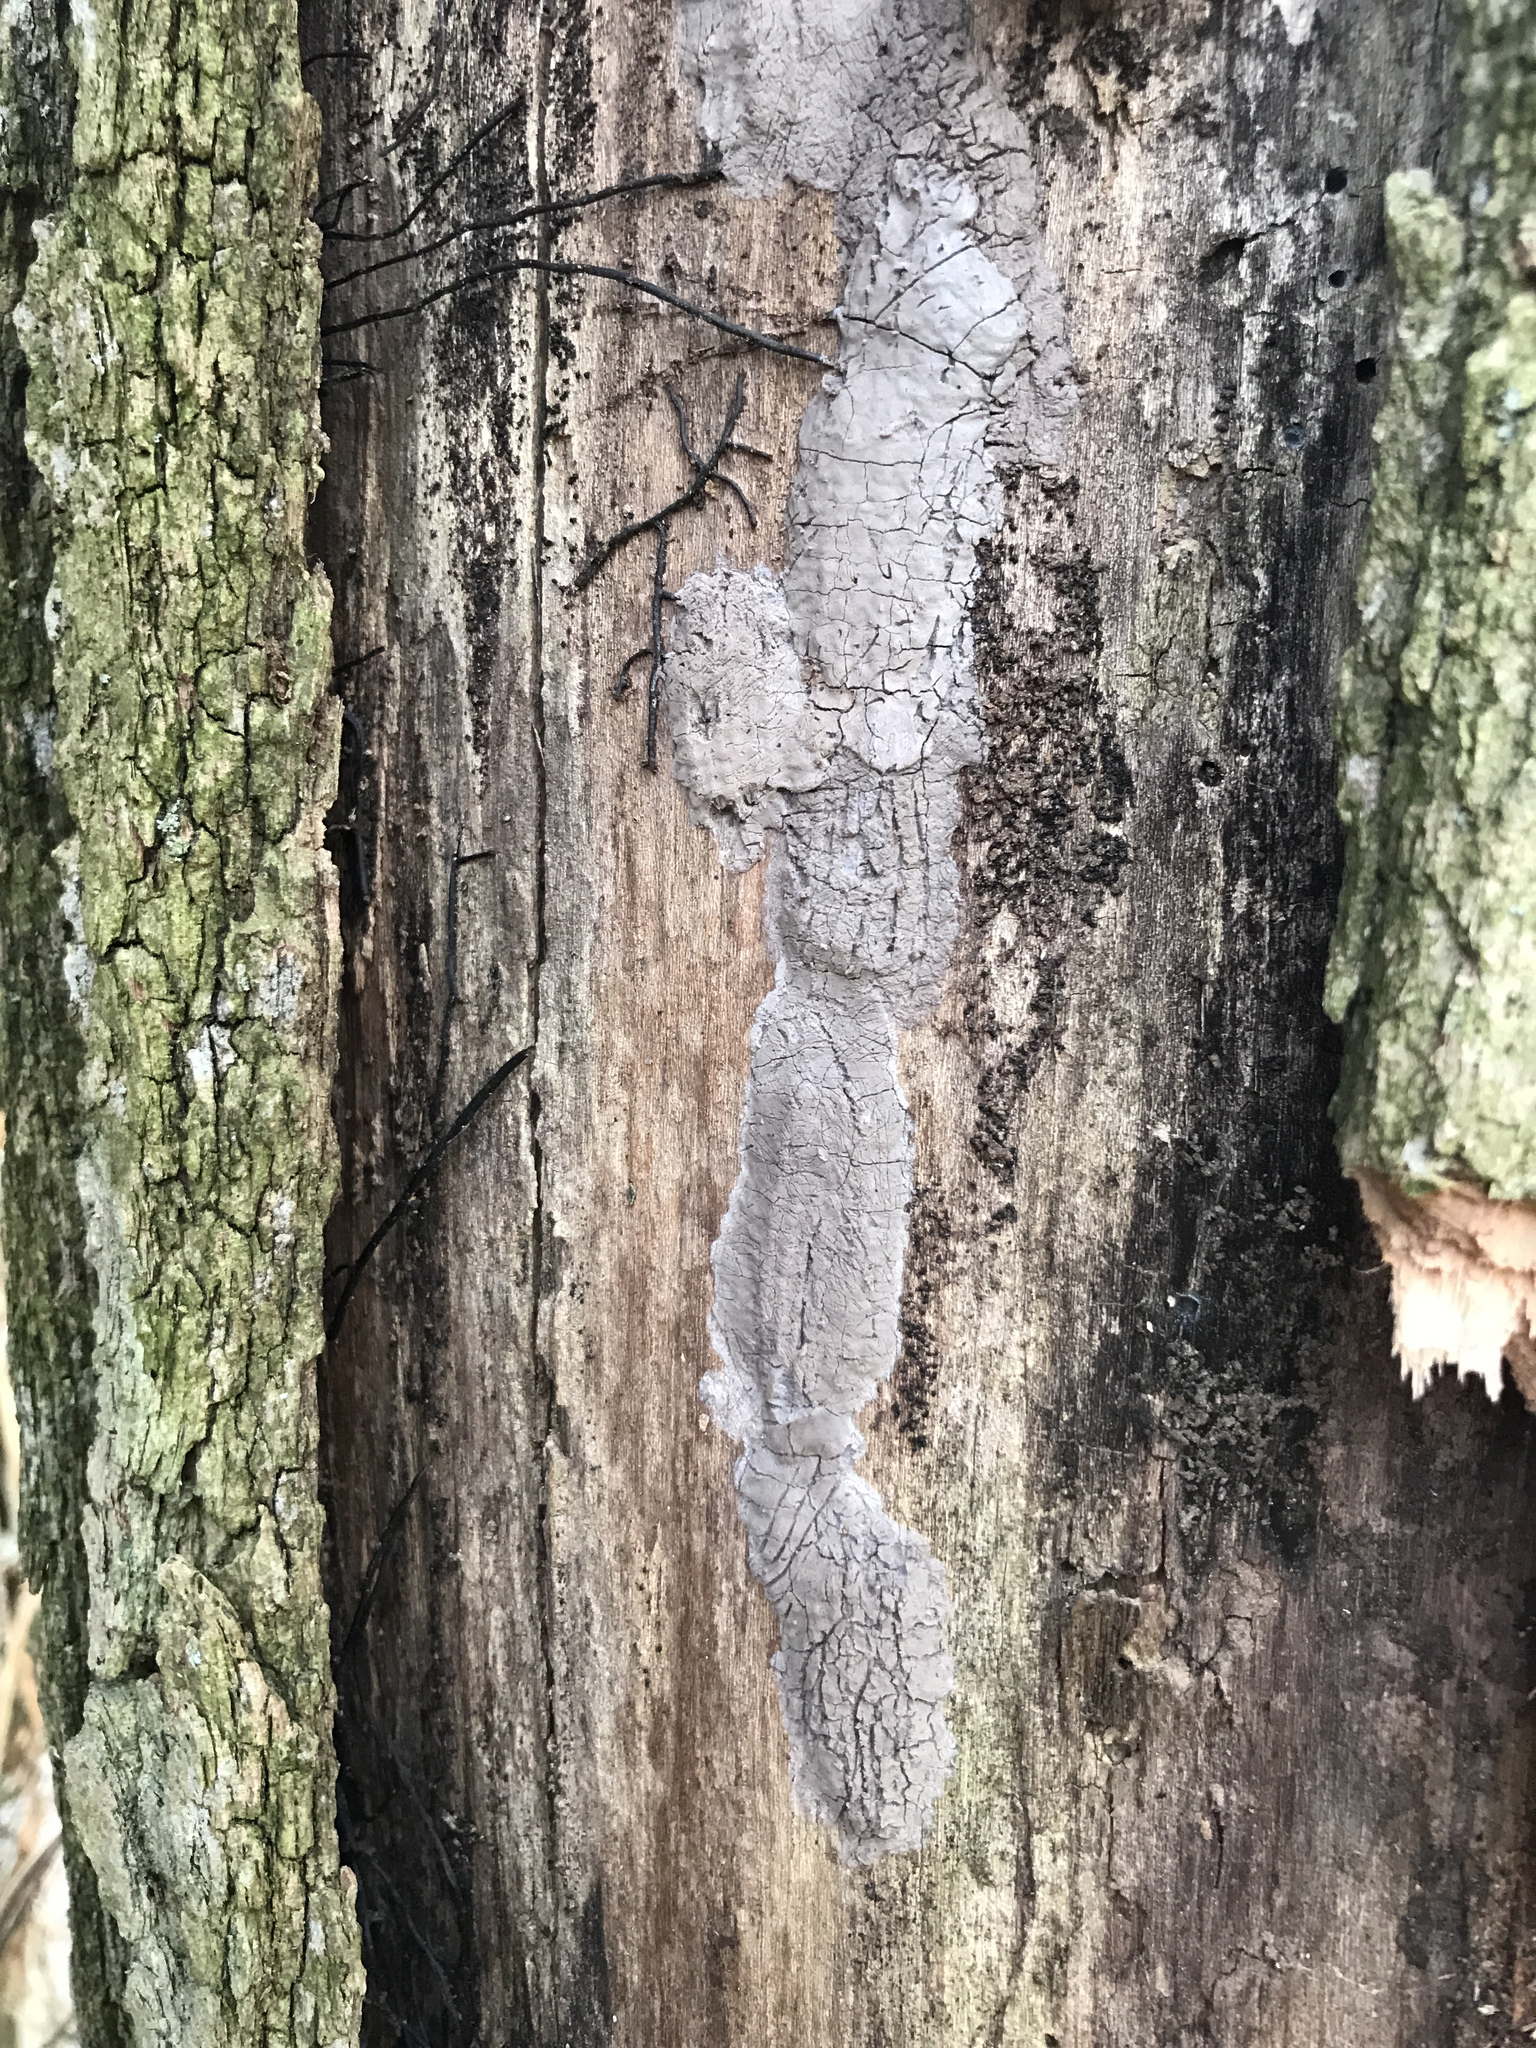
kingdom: Animalia
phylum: Arthropoda
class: Insecta
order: Hemiptera
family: Fulgoridae
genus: Lycorma
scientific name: Lycorma delicatula
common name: Spotted lanternfly
